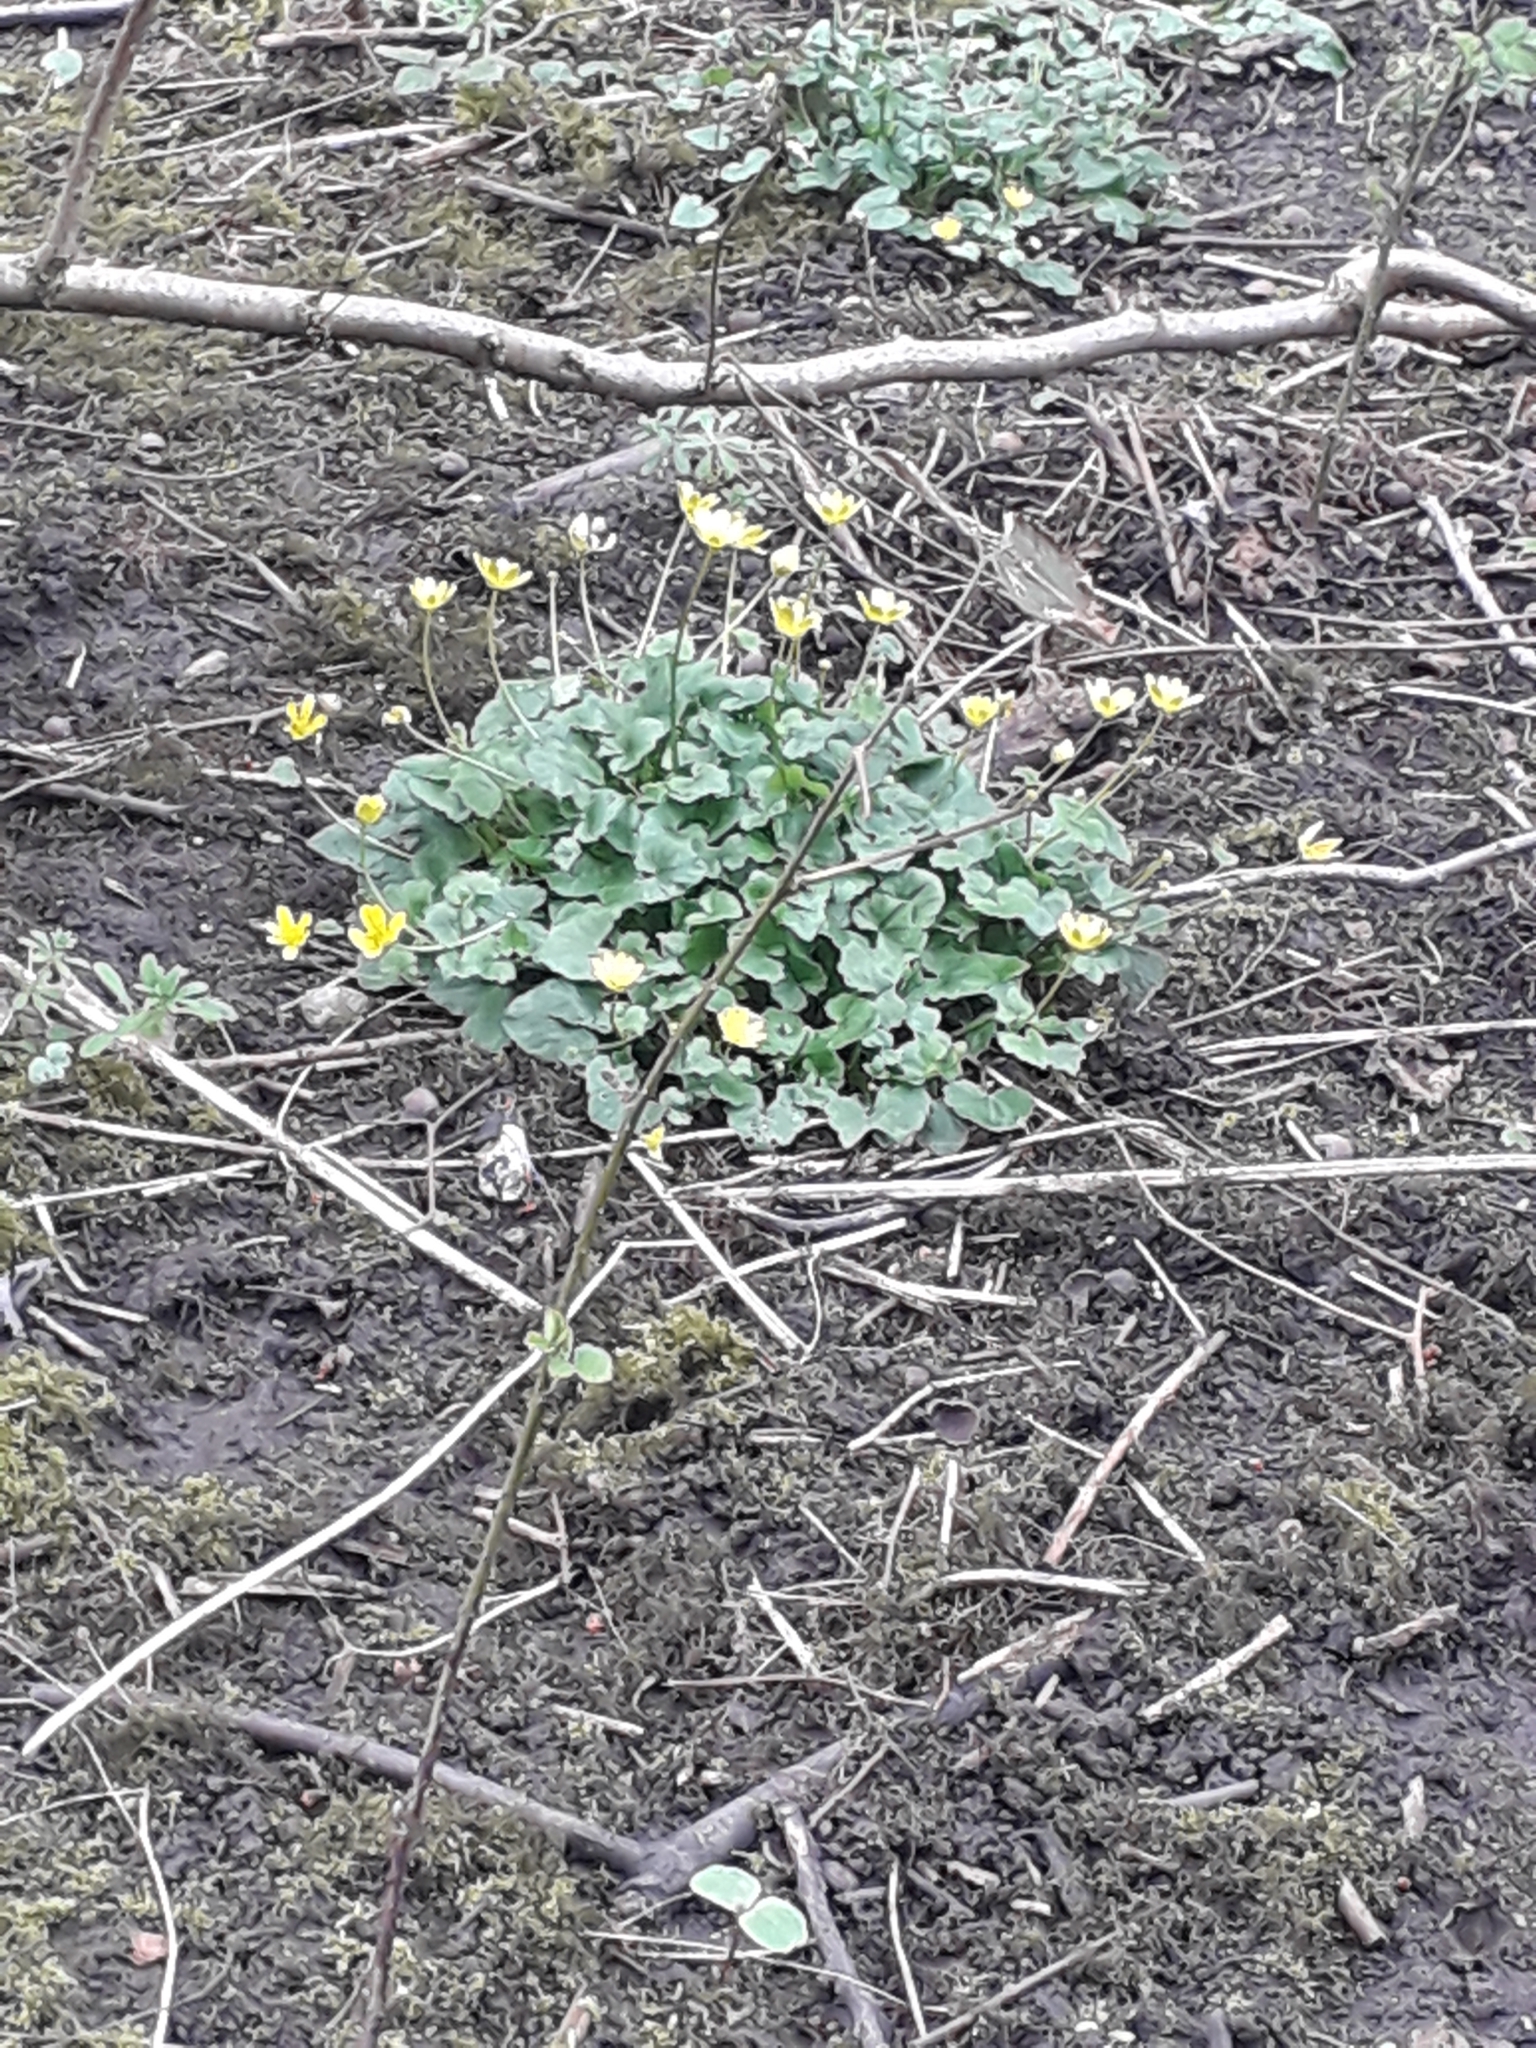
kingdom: Plantae
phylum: Tracheophyta
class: Magnoliopsida
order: Ranunculales
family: Ranunculaceae
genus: Ficaria
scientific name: Ficaria verna
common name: Lesser celandine
